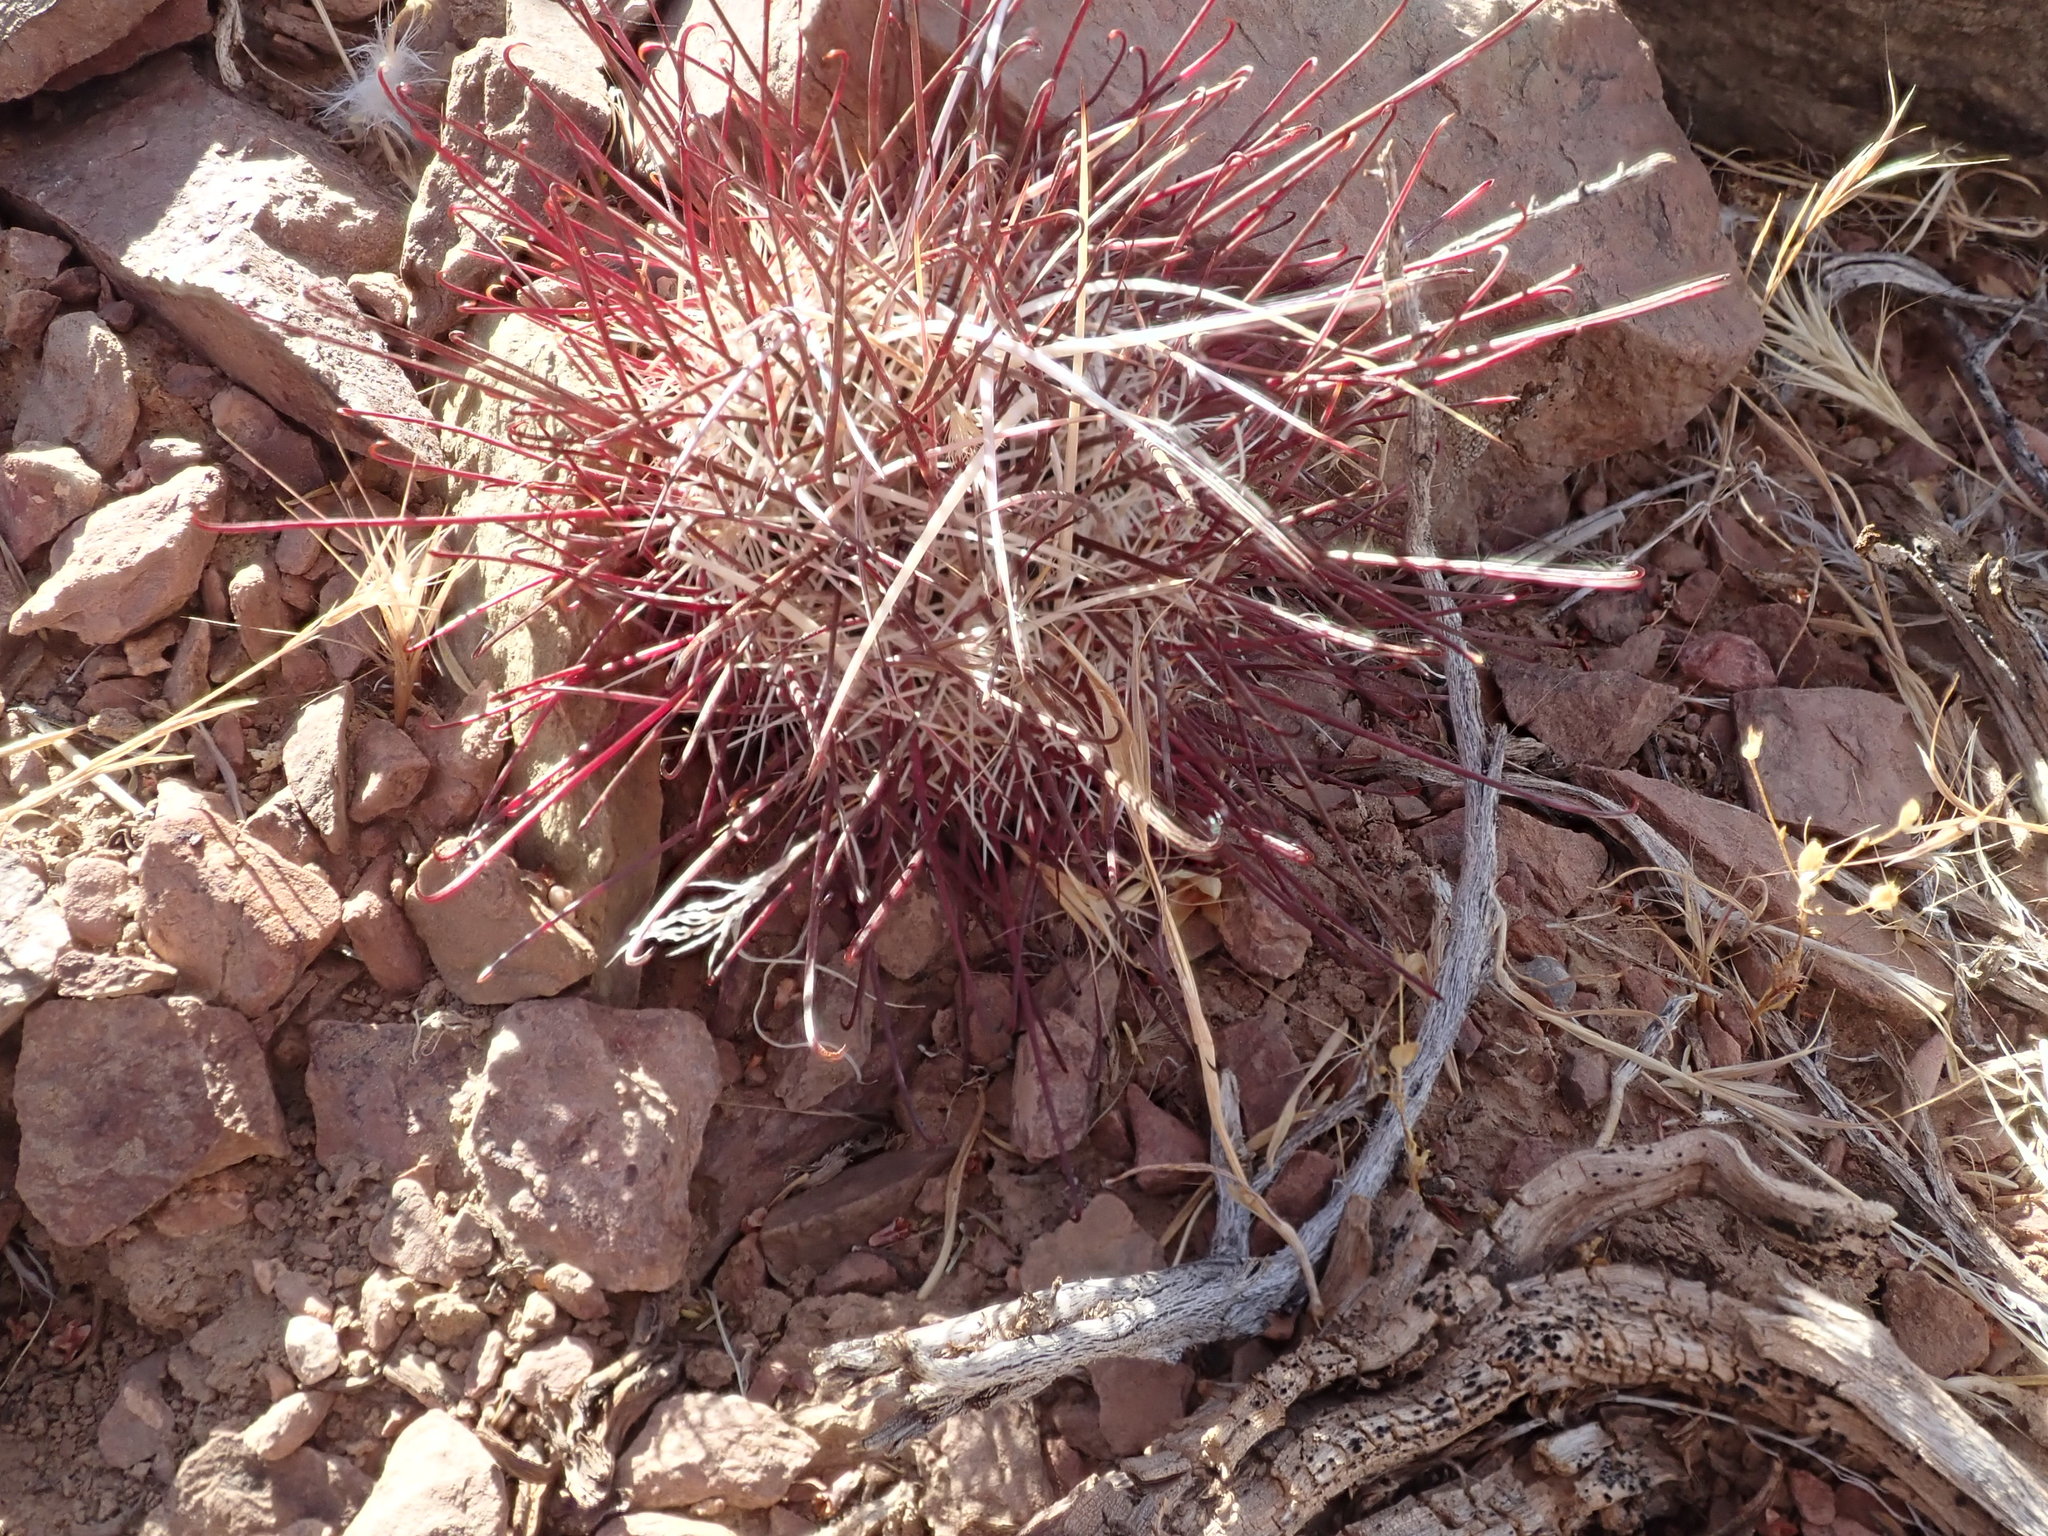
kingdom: Plantae
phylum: Tracheophyta
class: Magnoliopsida
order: Caryophyllales
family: Cactaceae
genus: Sclerocactus
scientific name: Sclerocactus polyancistrus
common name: Mohave fishhook cactus
